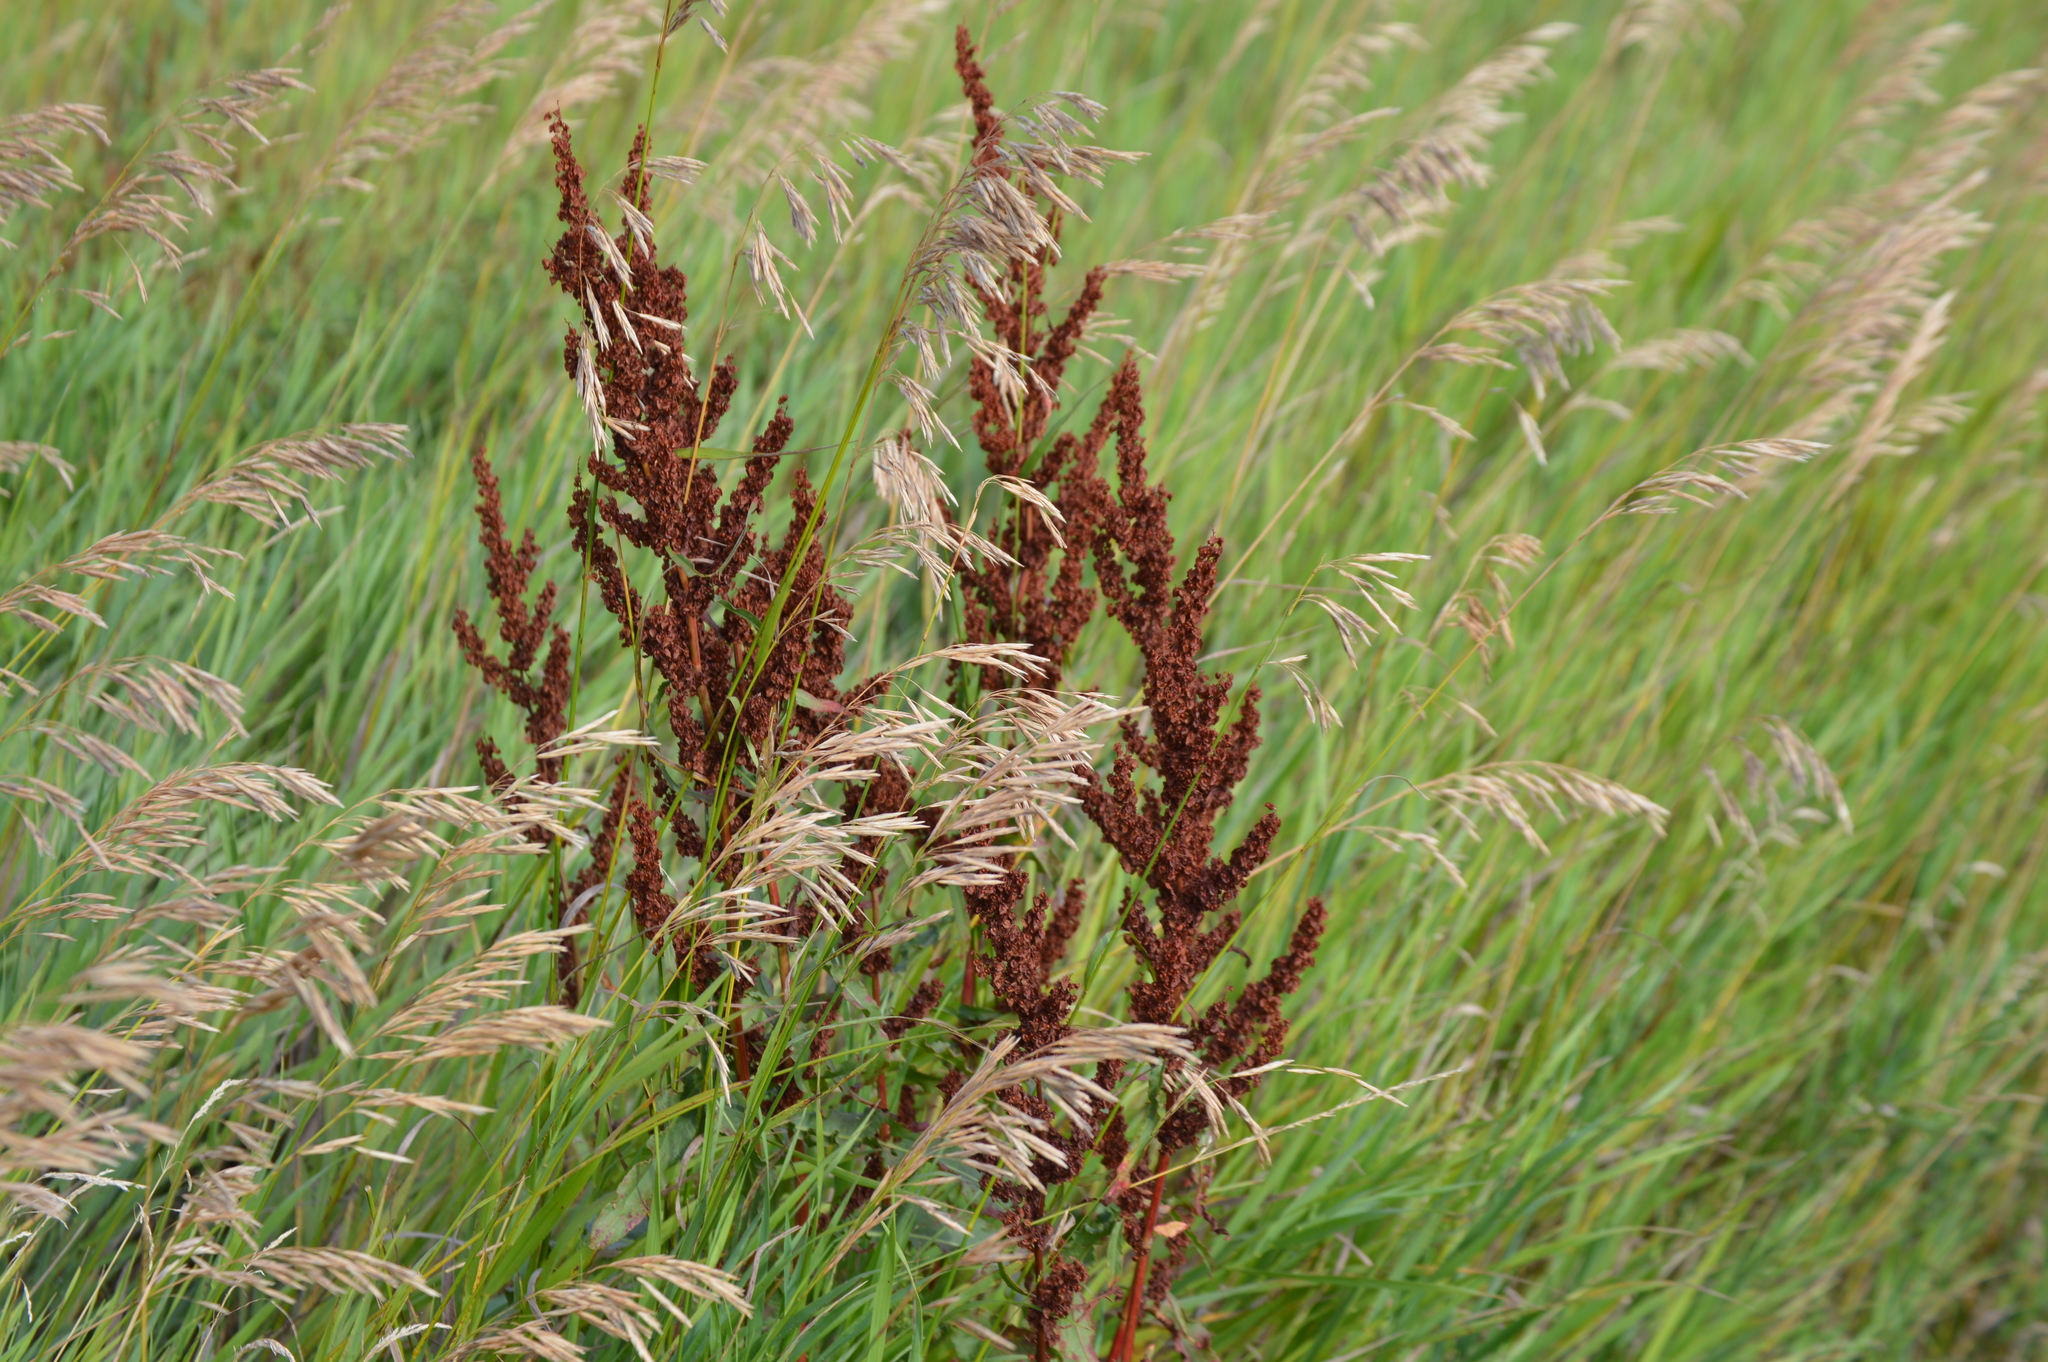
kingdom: Plantae
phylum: Tracheophyta
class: Magnoliopsida
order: Caryophyllales
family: Polygonaceae
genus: Rumex
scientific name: Rumex crispus
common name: Curled dock
